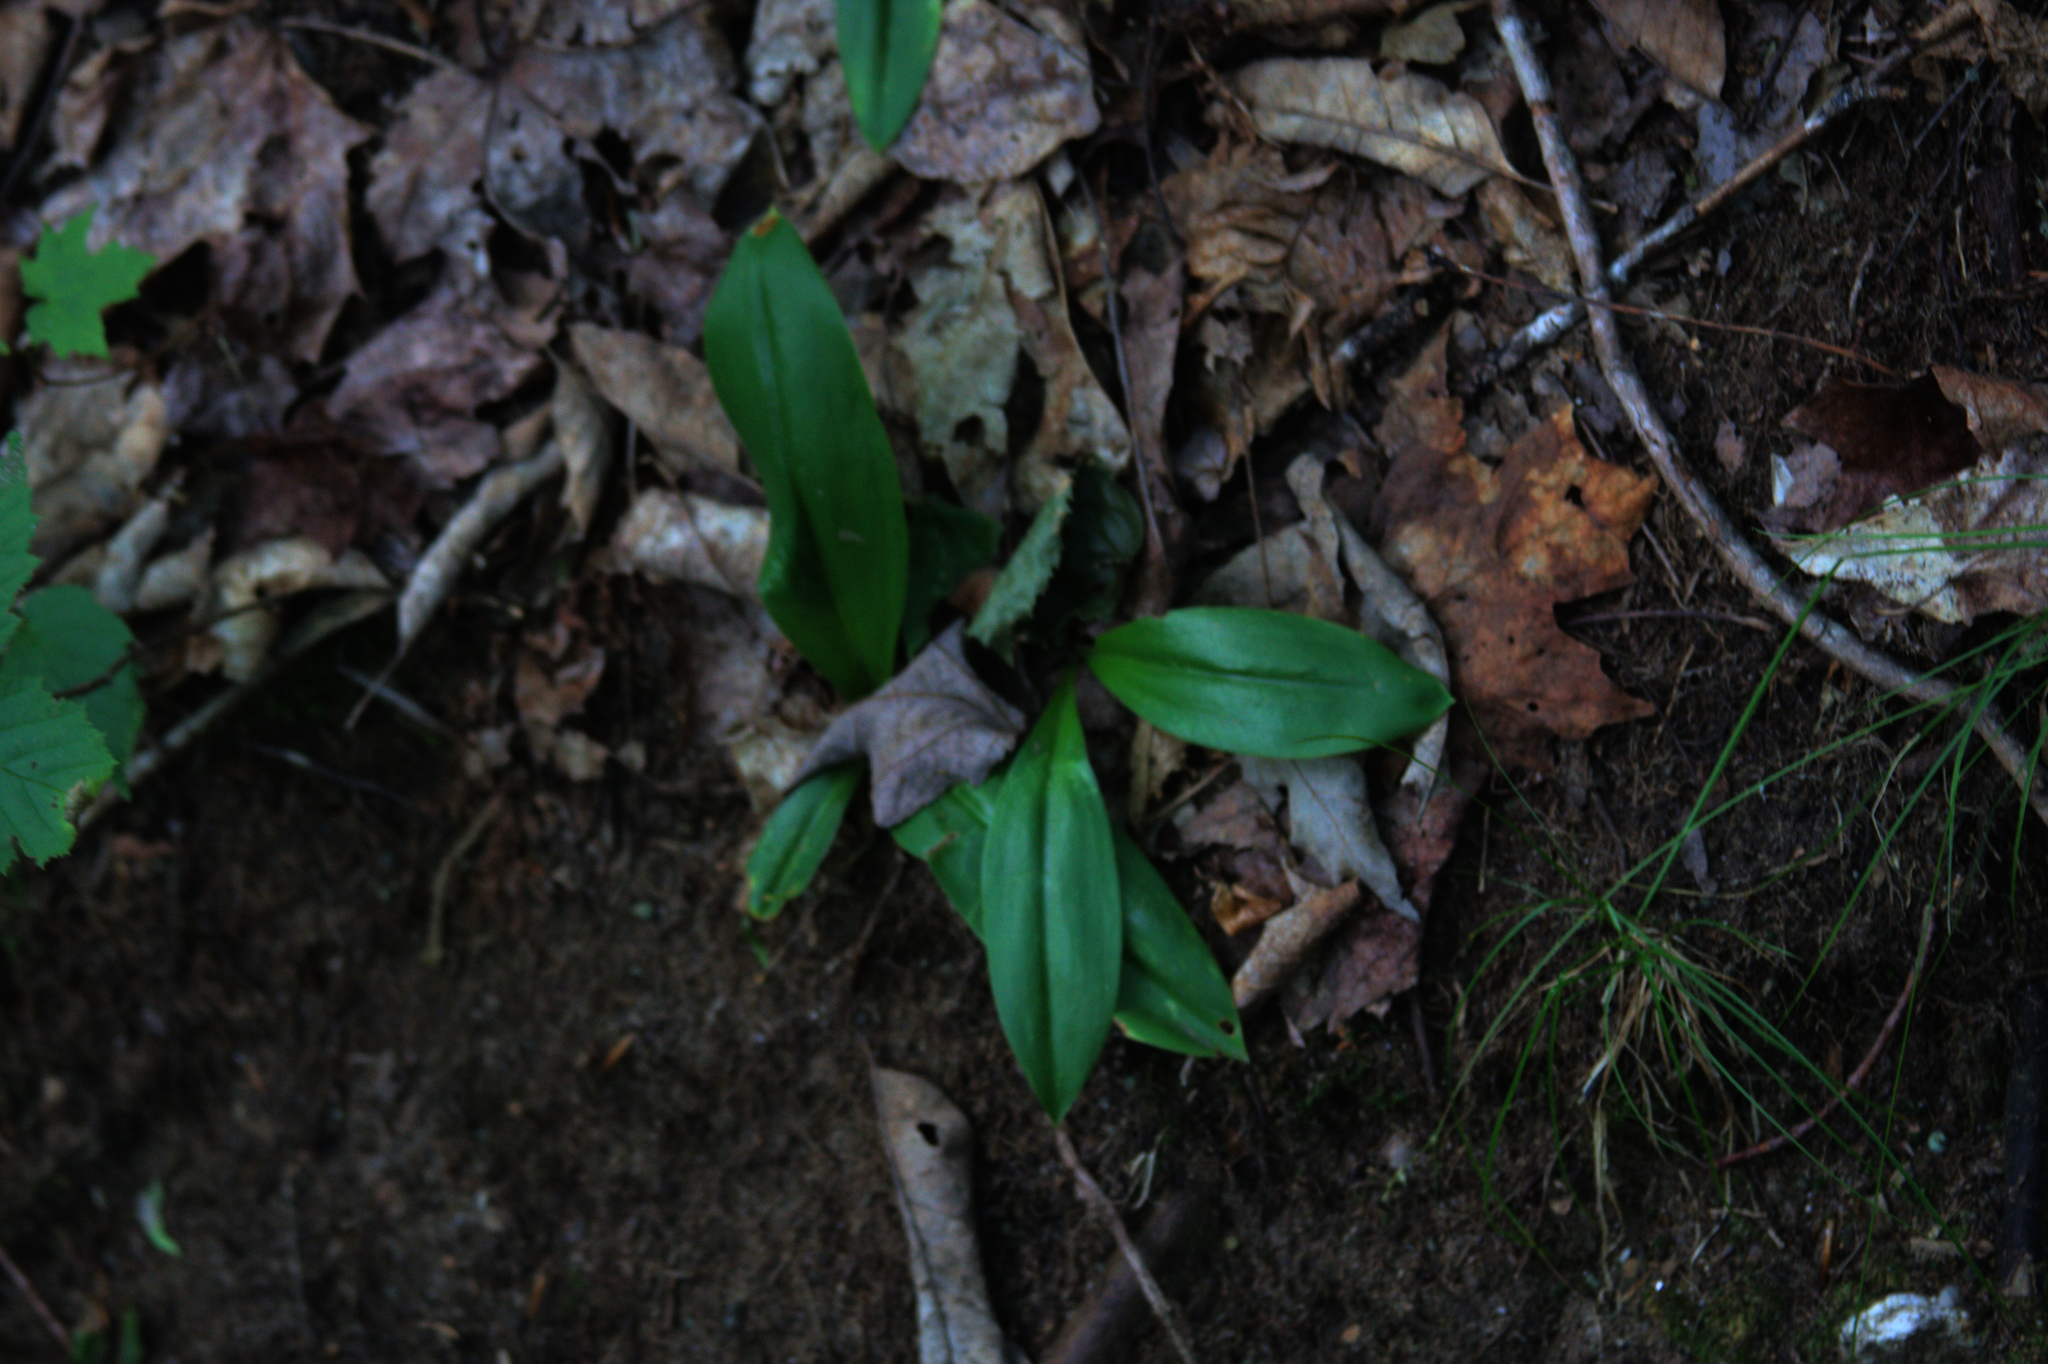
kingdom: Plantae
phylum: Tracheophyta
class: Liliopsida
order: Liliales
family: Liliaceae
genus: Clintonia
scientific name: Clintonia borealis
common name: Yellow clintonia
